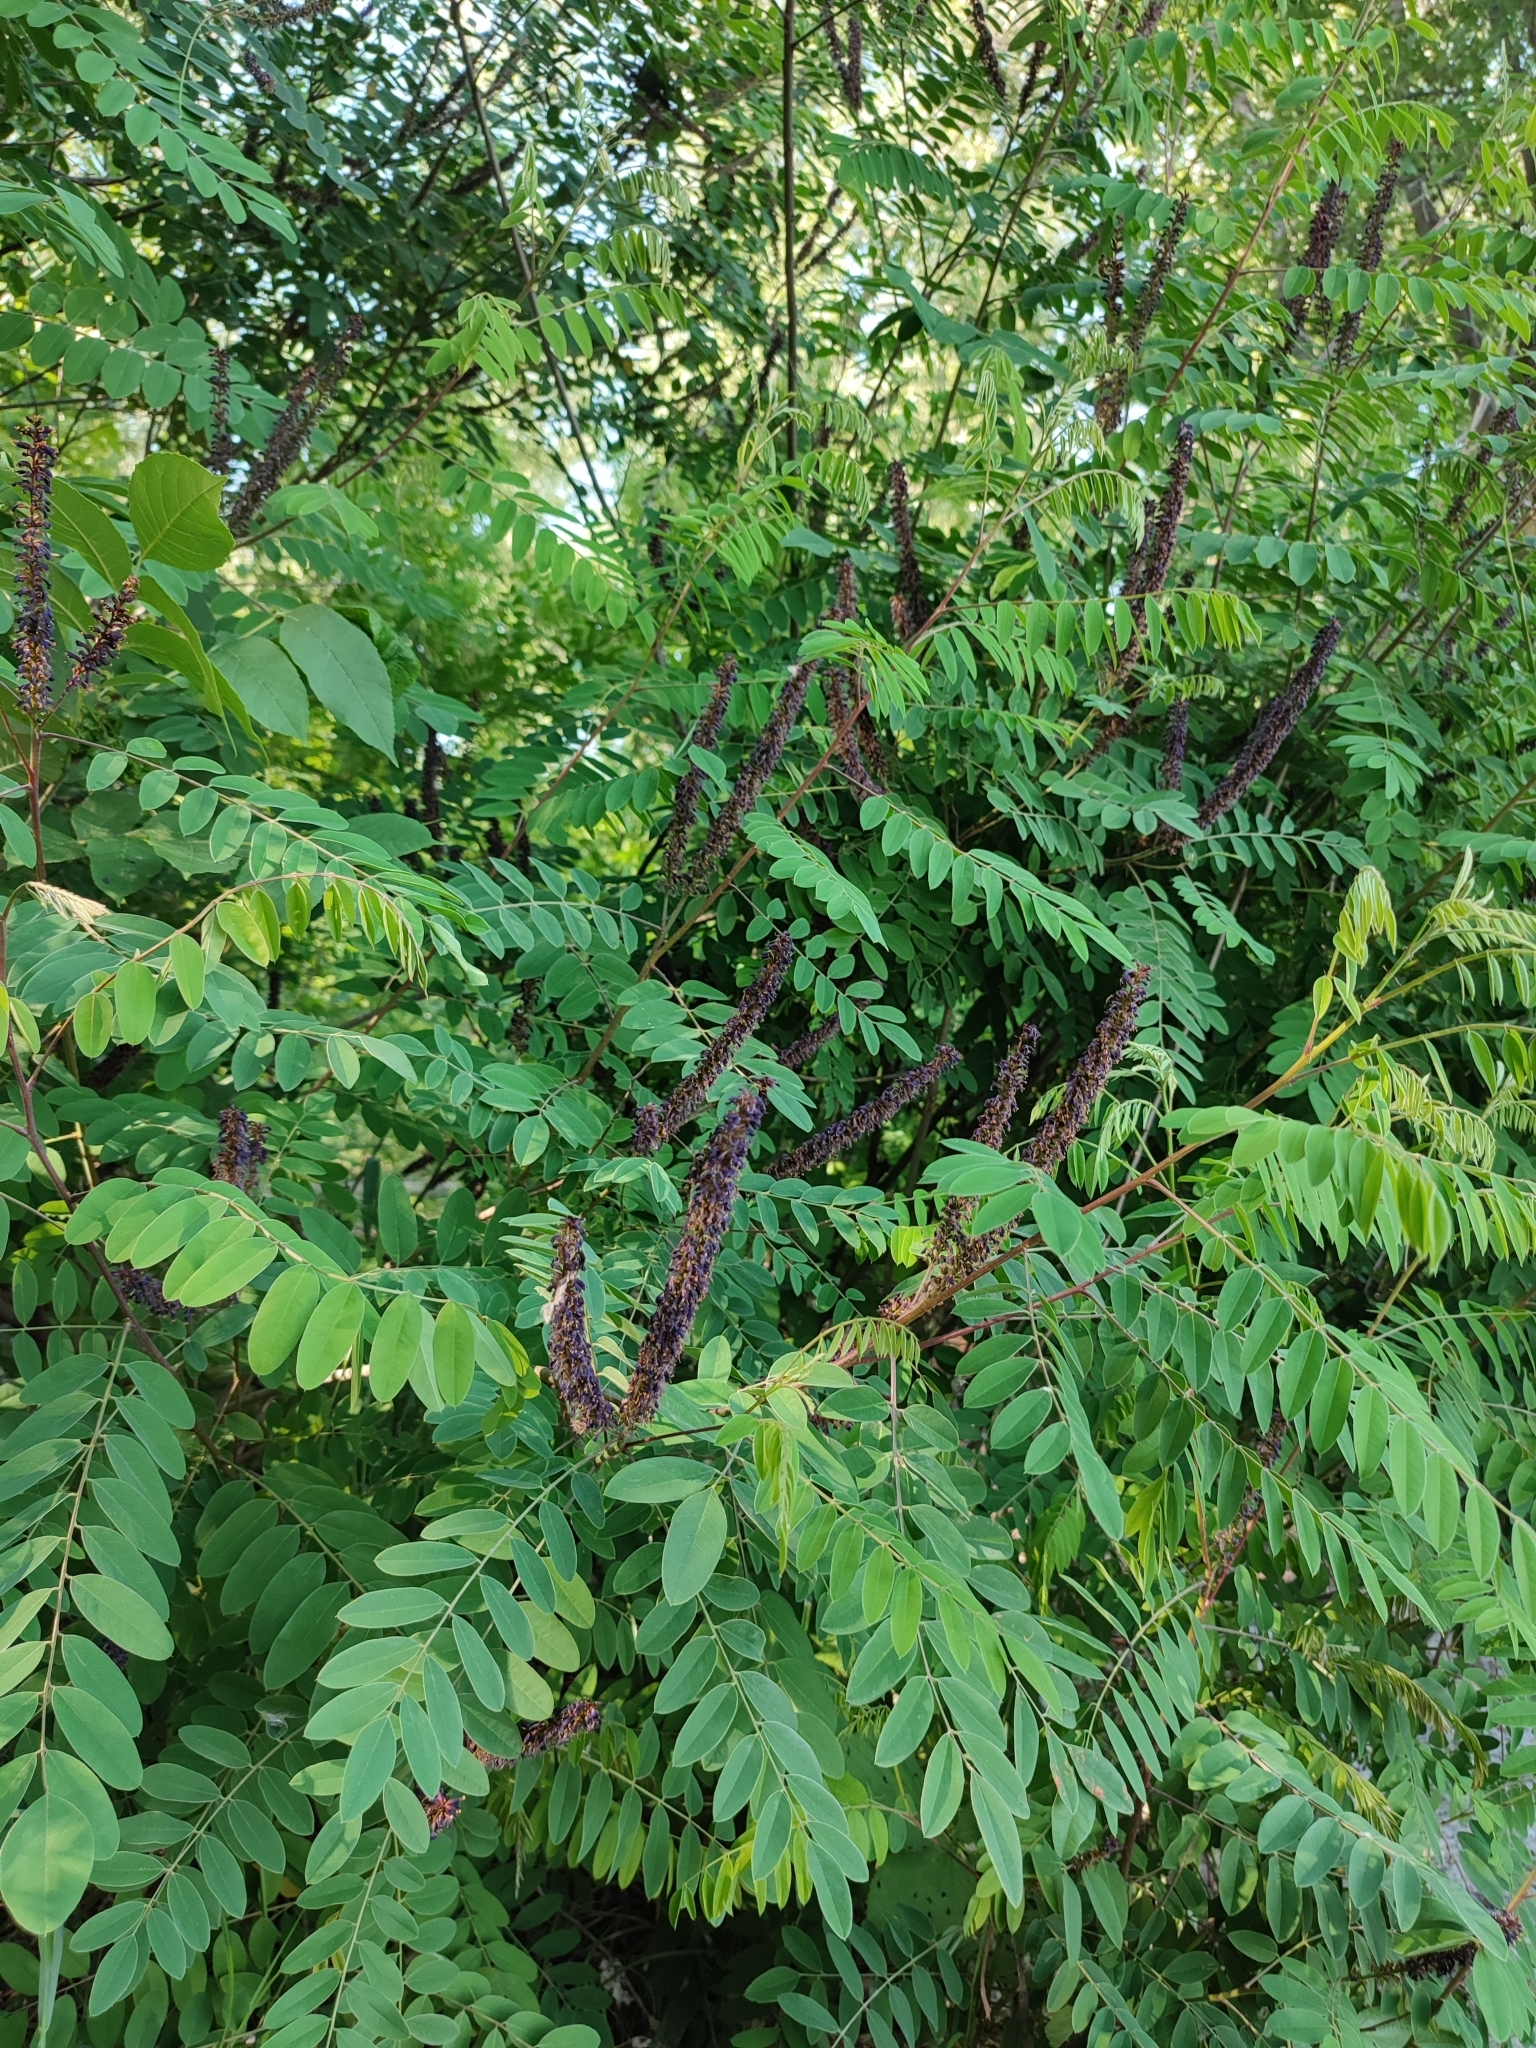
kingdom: Plantae
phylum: Tracheophyta
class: Magnoliopsida
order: Fabales
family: Fabaceae
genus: Amorpha
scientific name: Amorpha fruticosa
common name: False indigo
